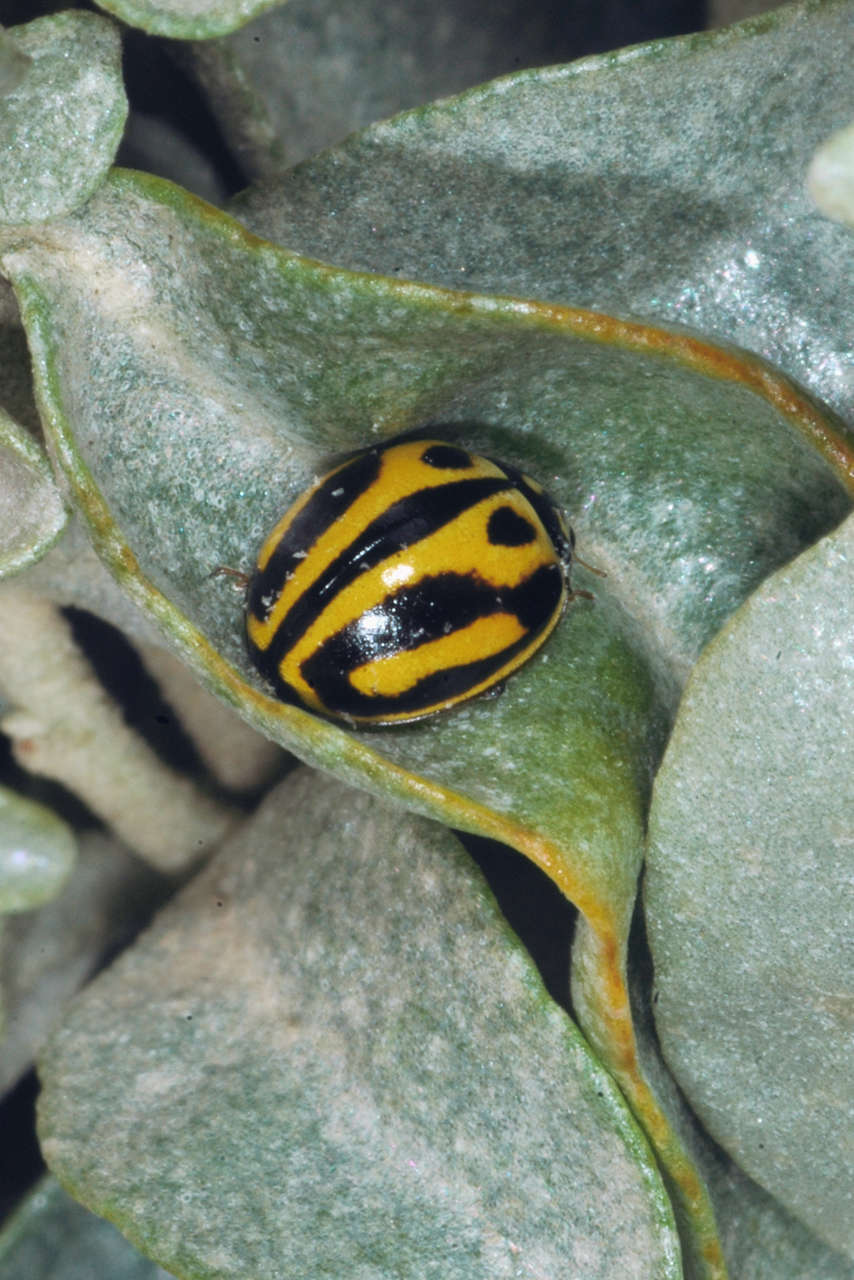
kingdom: Animalia
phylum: Arthropoda
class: Insecta
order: Coleoptera
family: Coccinellidae
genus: Micraspis
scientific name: Micraspis
